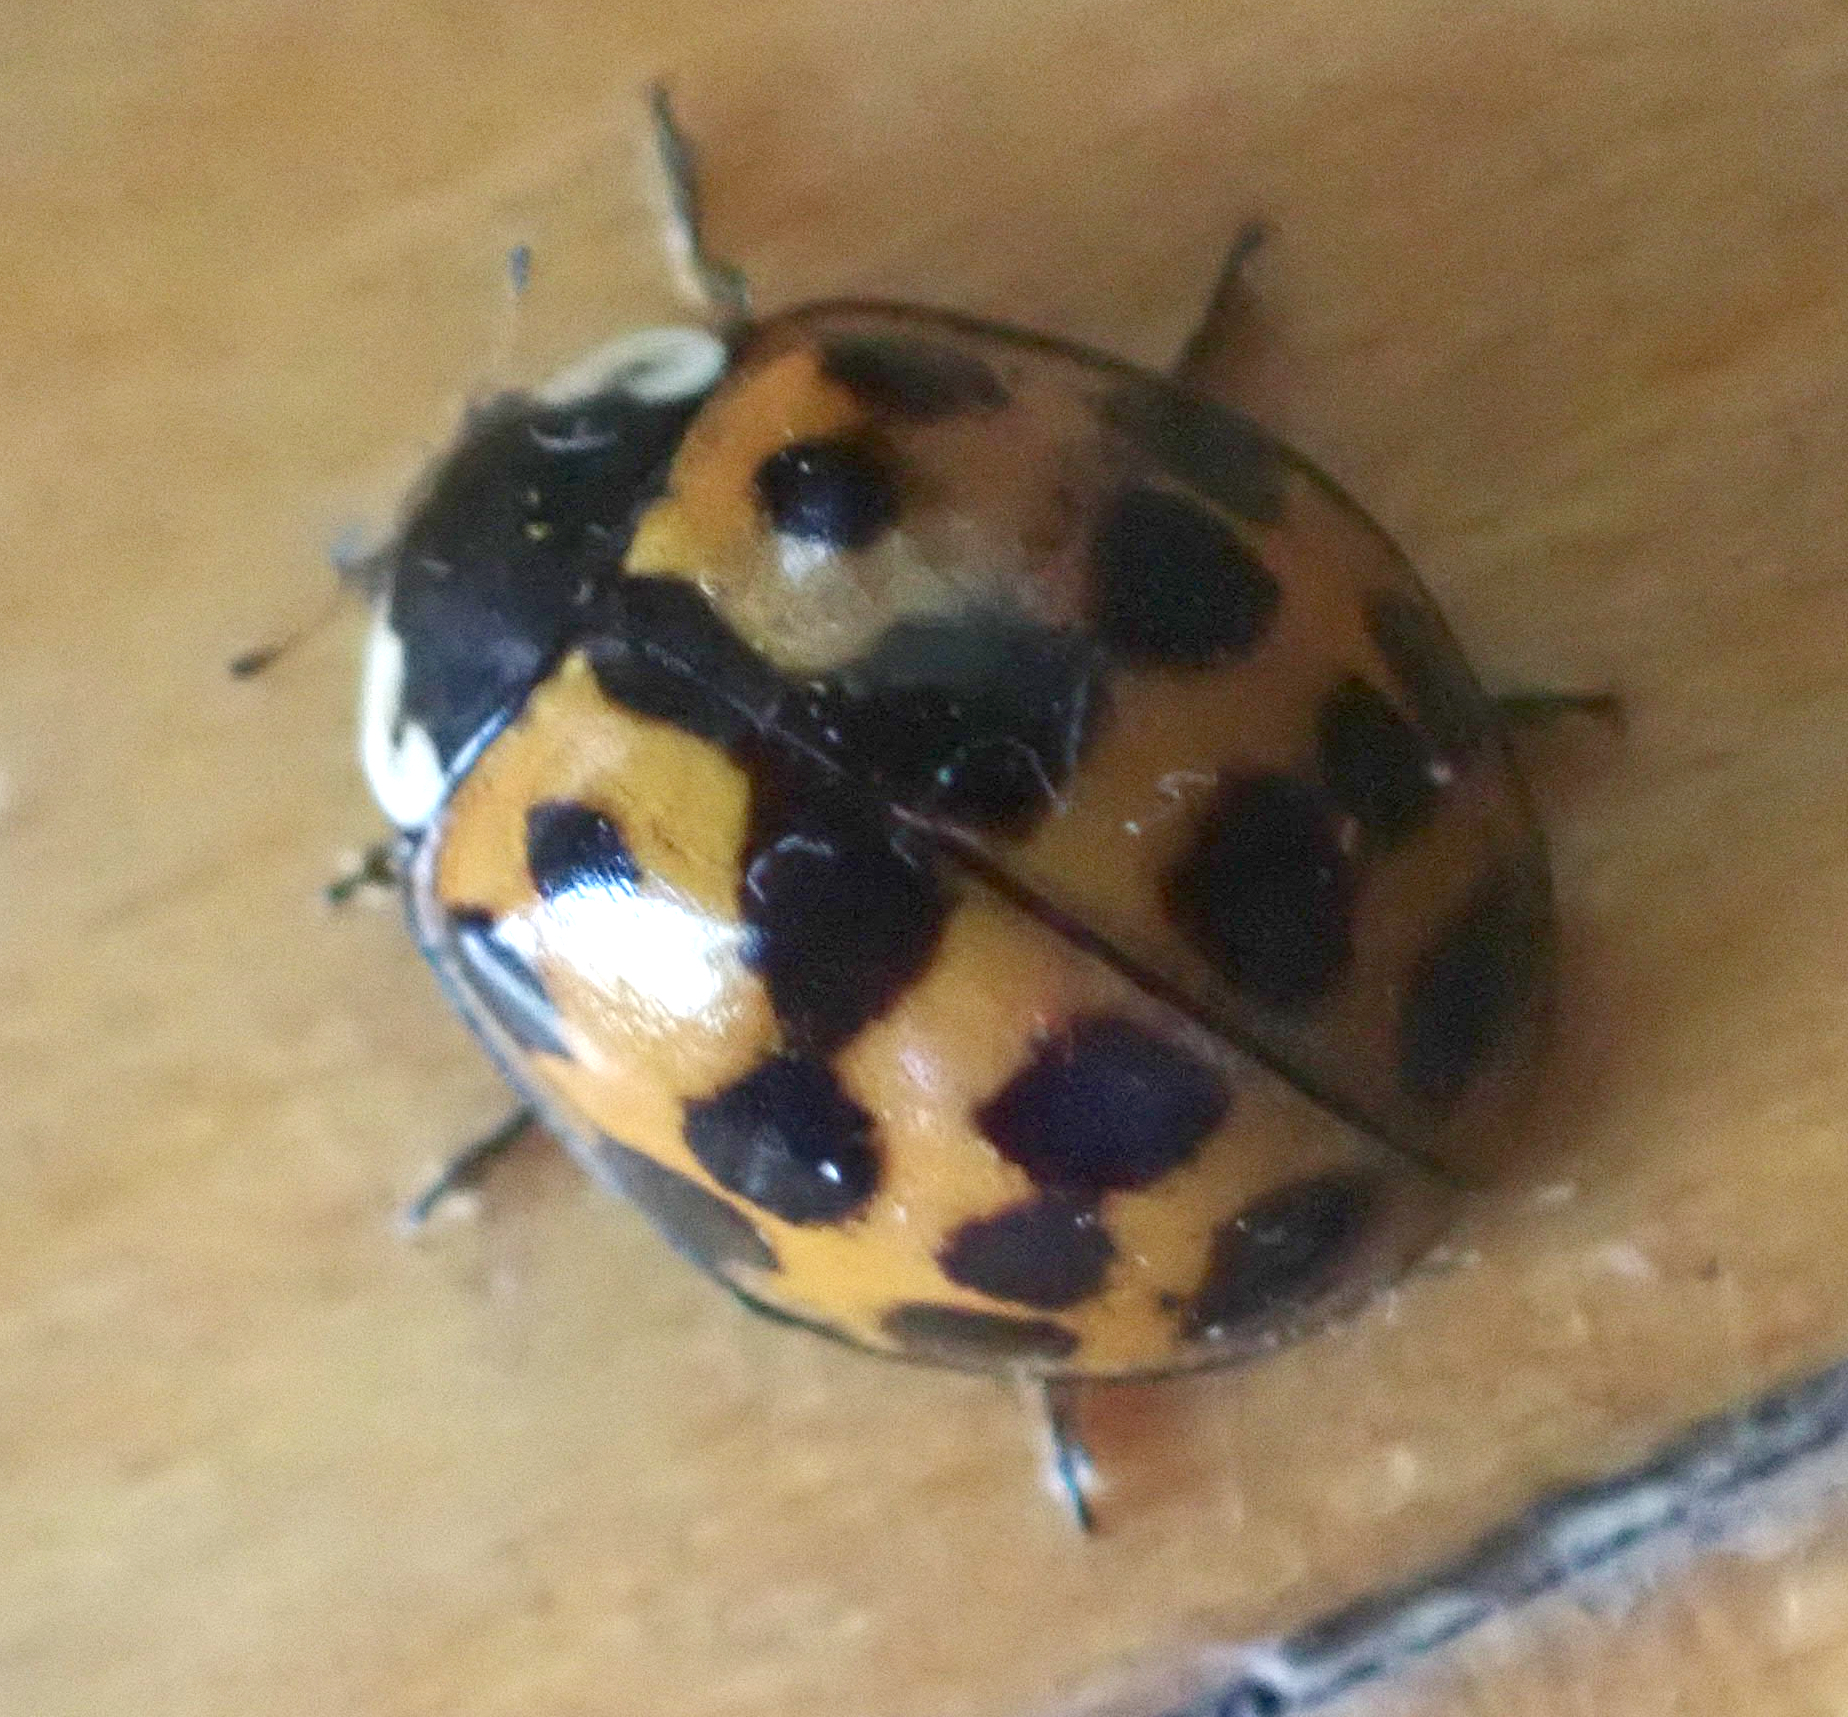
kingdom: Animalia
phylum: Arthropoda
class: Insecta
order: Coleoptera
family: Coccinellidae
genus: Harmonia
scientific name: Harmonia axyridis
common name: Harlequin ladybird
